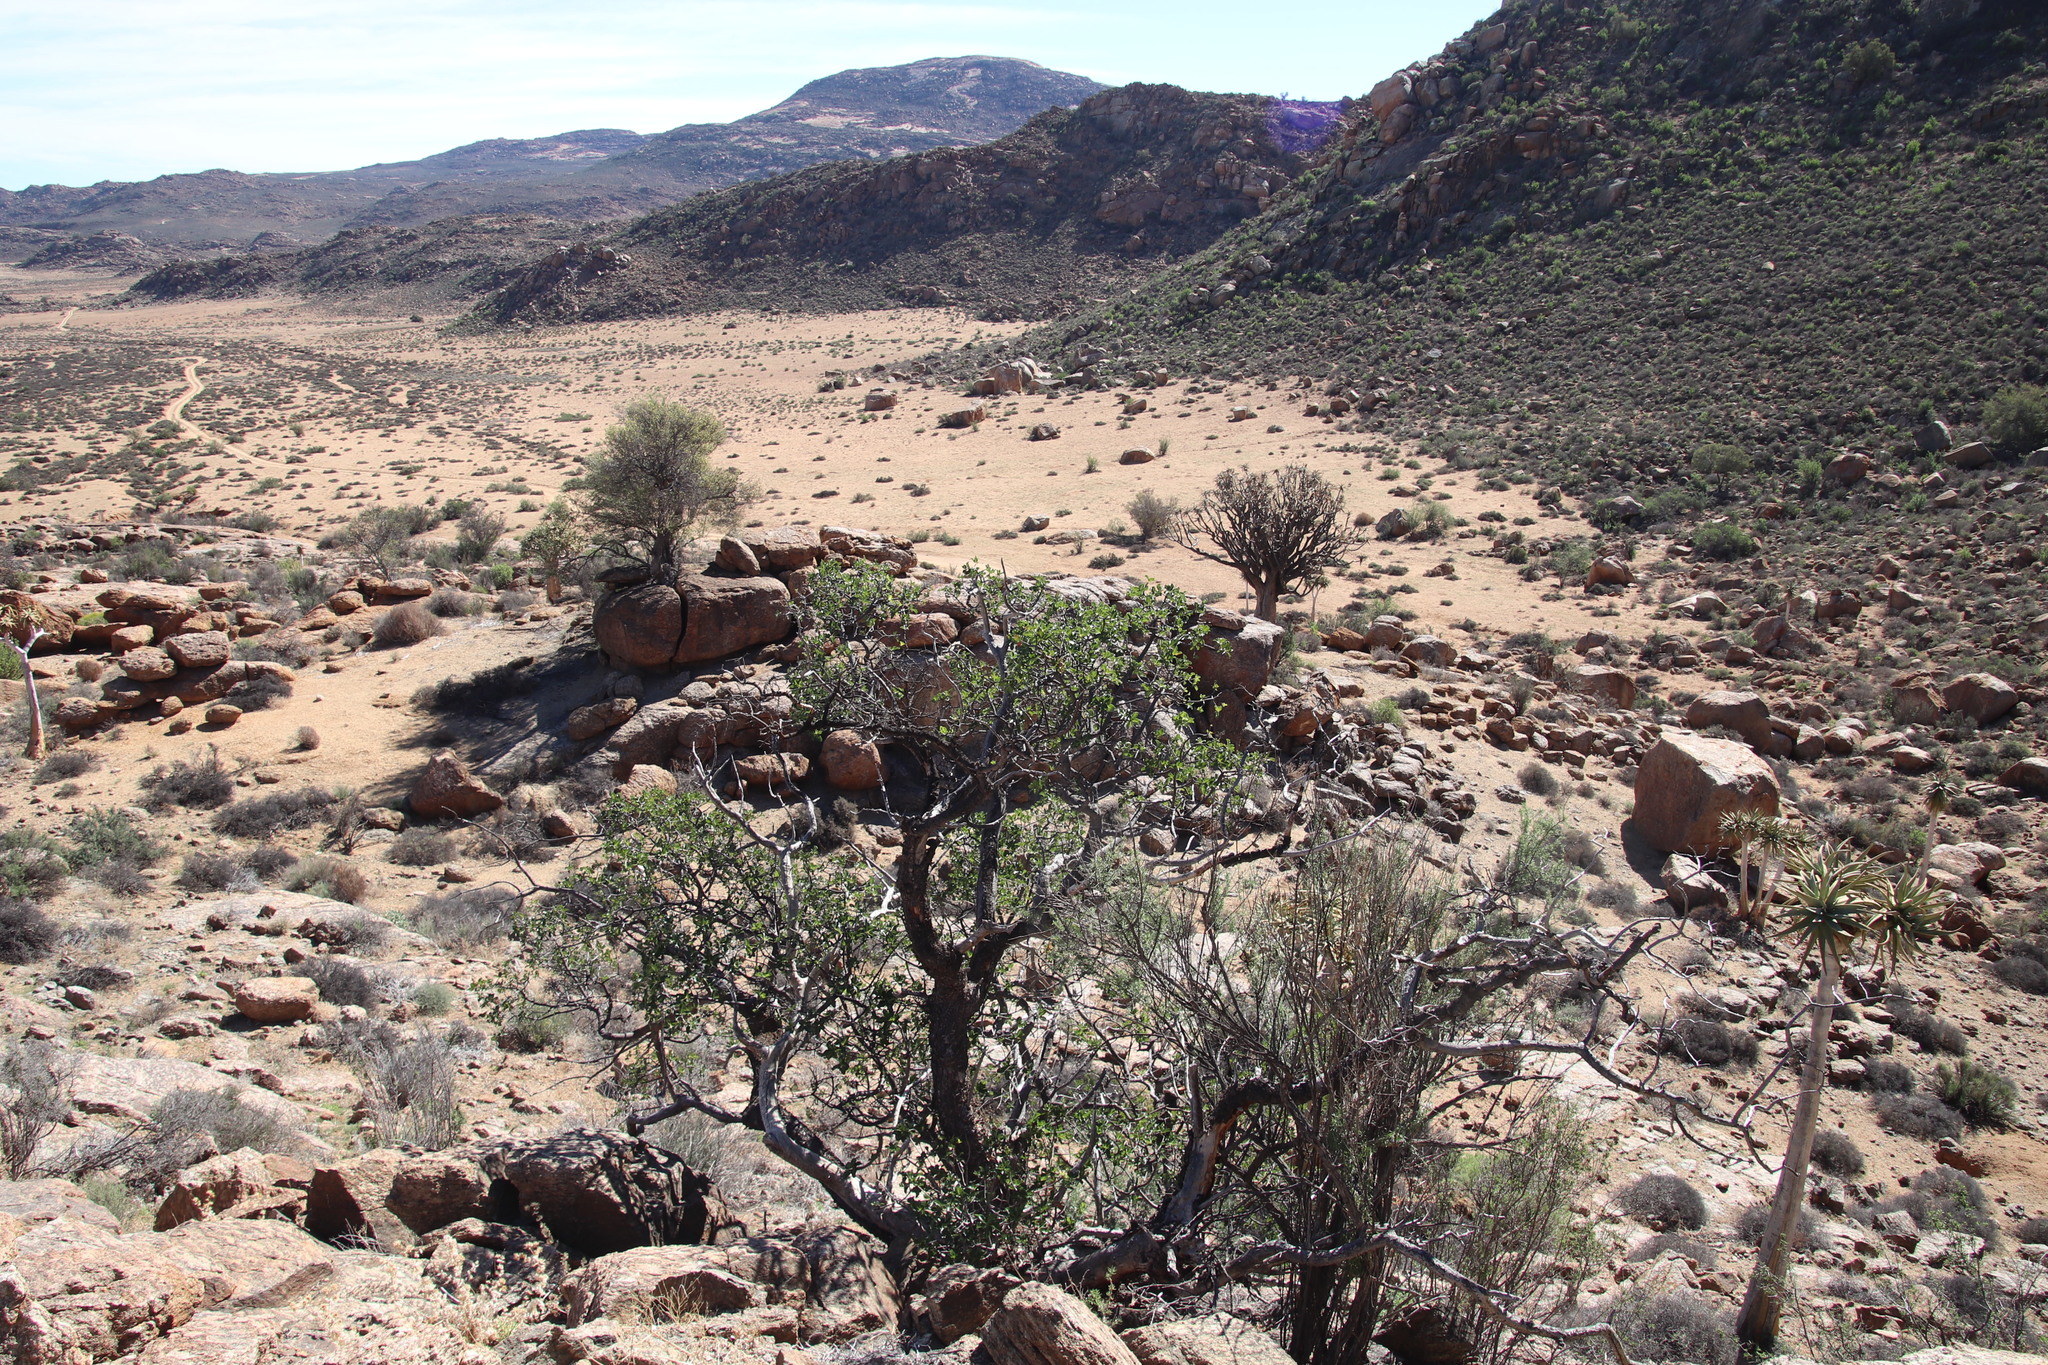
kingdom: Plantae
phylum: Tracheophyta
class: Magnoliopsida
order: Sapindales
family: Anacardiaceae
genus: Ozoroa
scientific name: Ozoroa dispar
